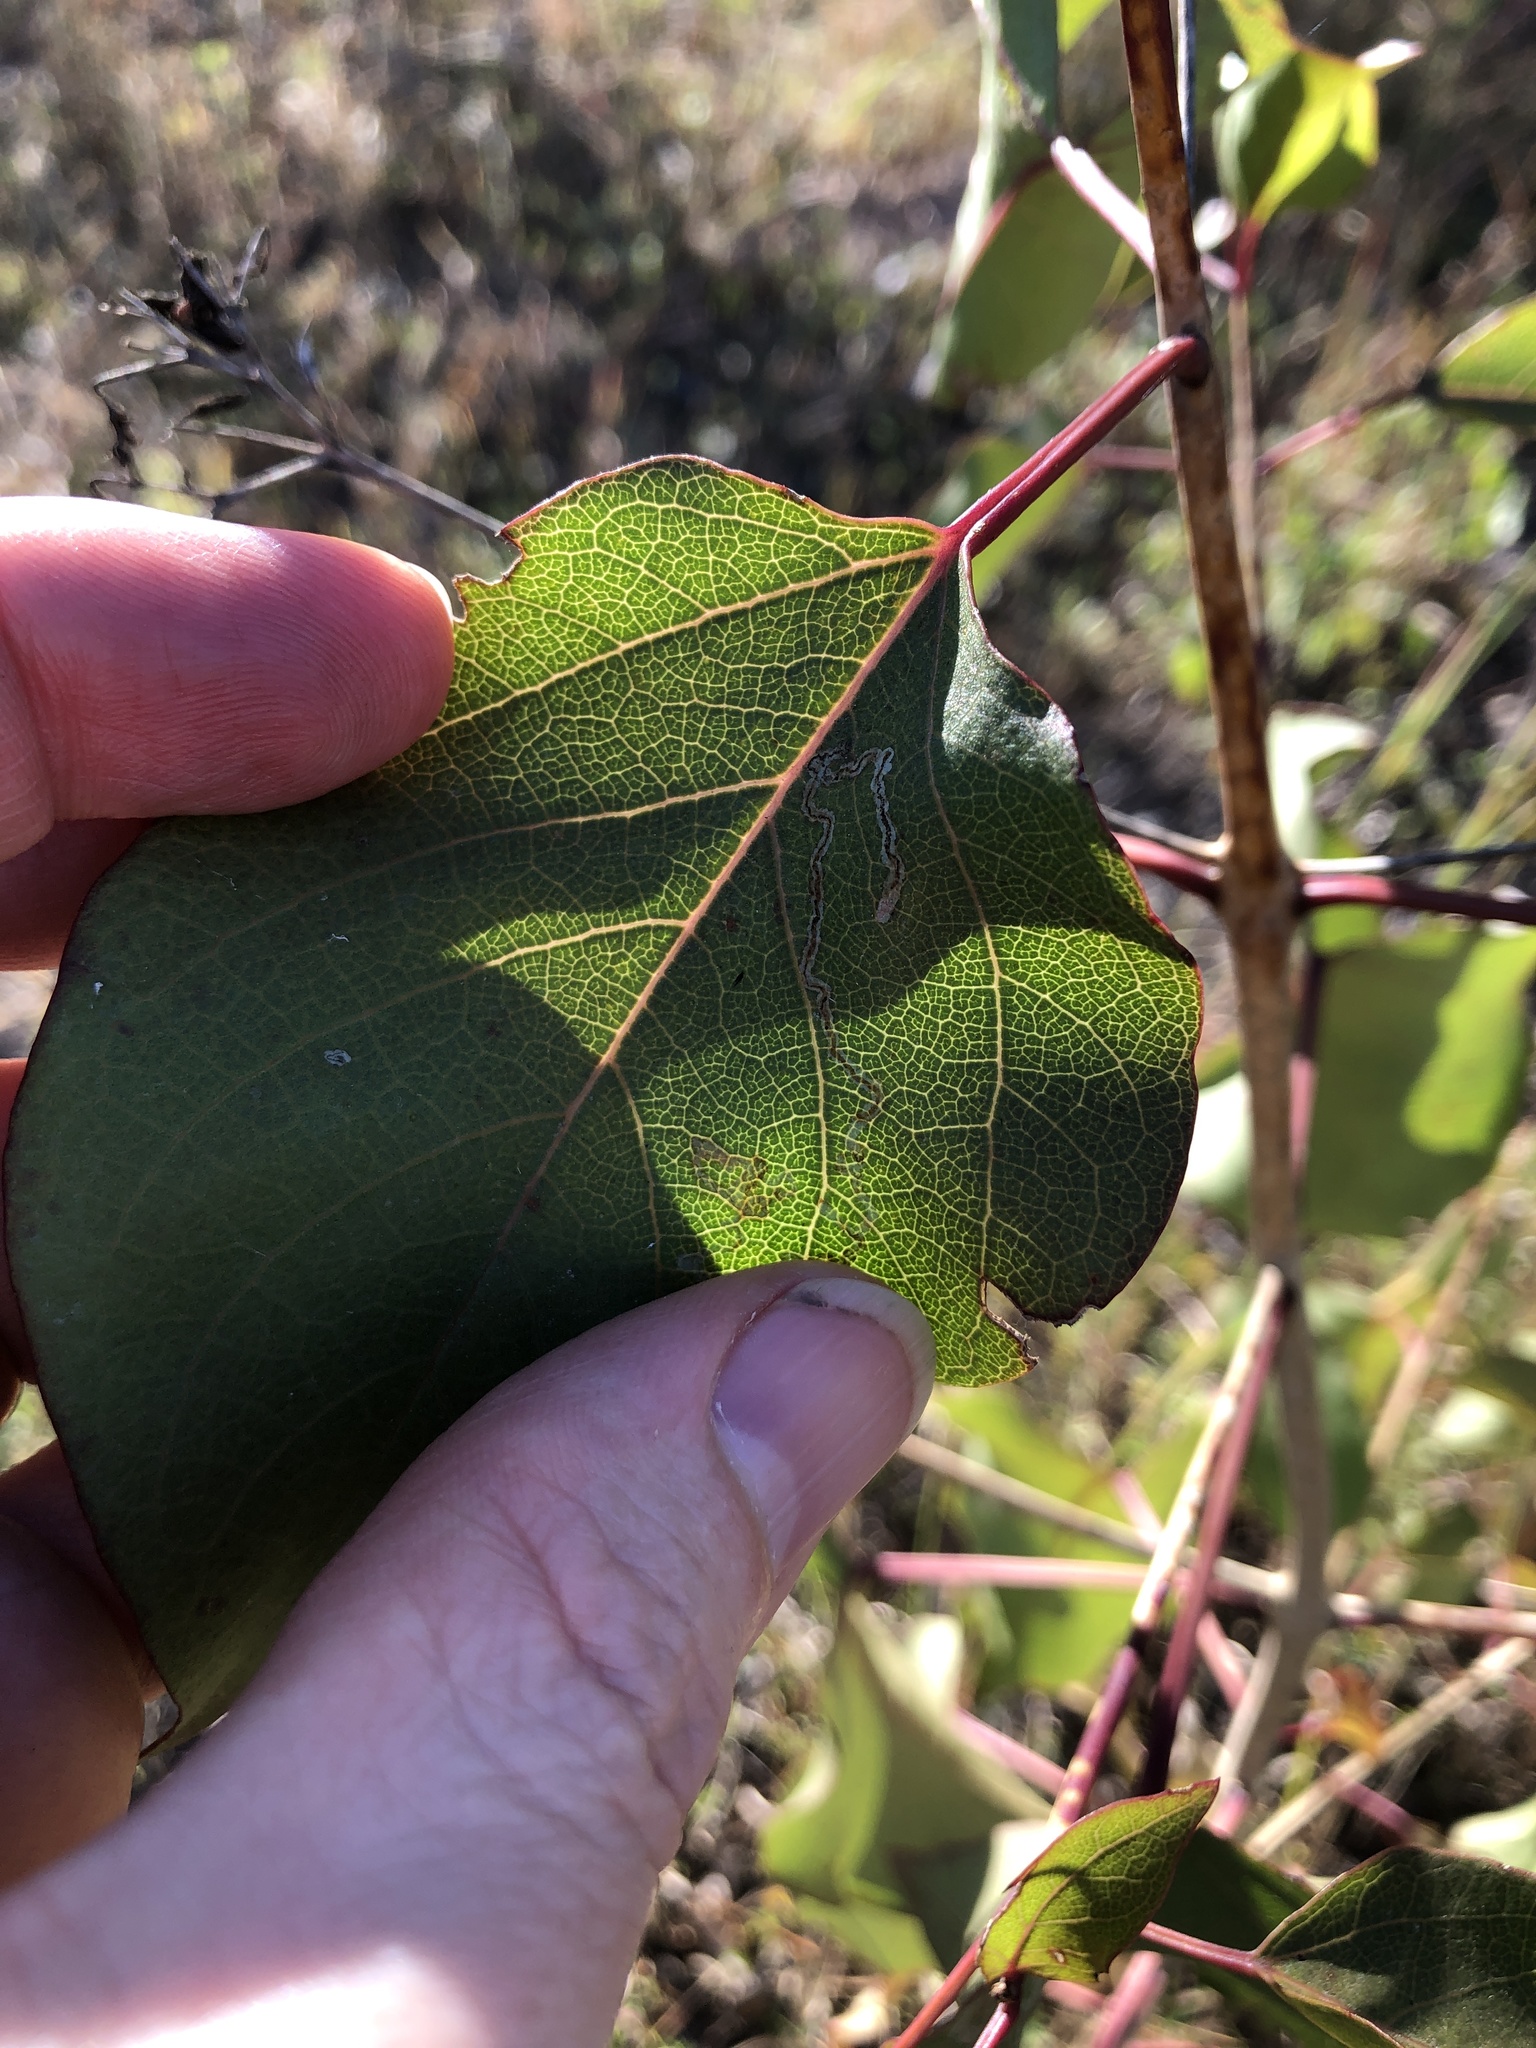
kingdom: Plantae
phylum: Tracheophyta
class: Magnoliopsida
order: Lamiales
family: Lamiaceae
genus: Clerodendrum
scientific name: Clerodendrum floribundum
